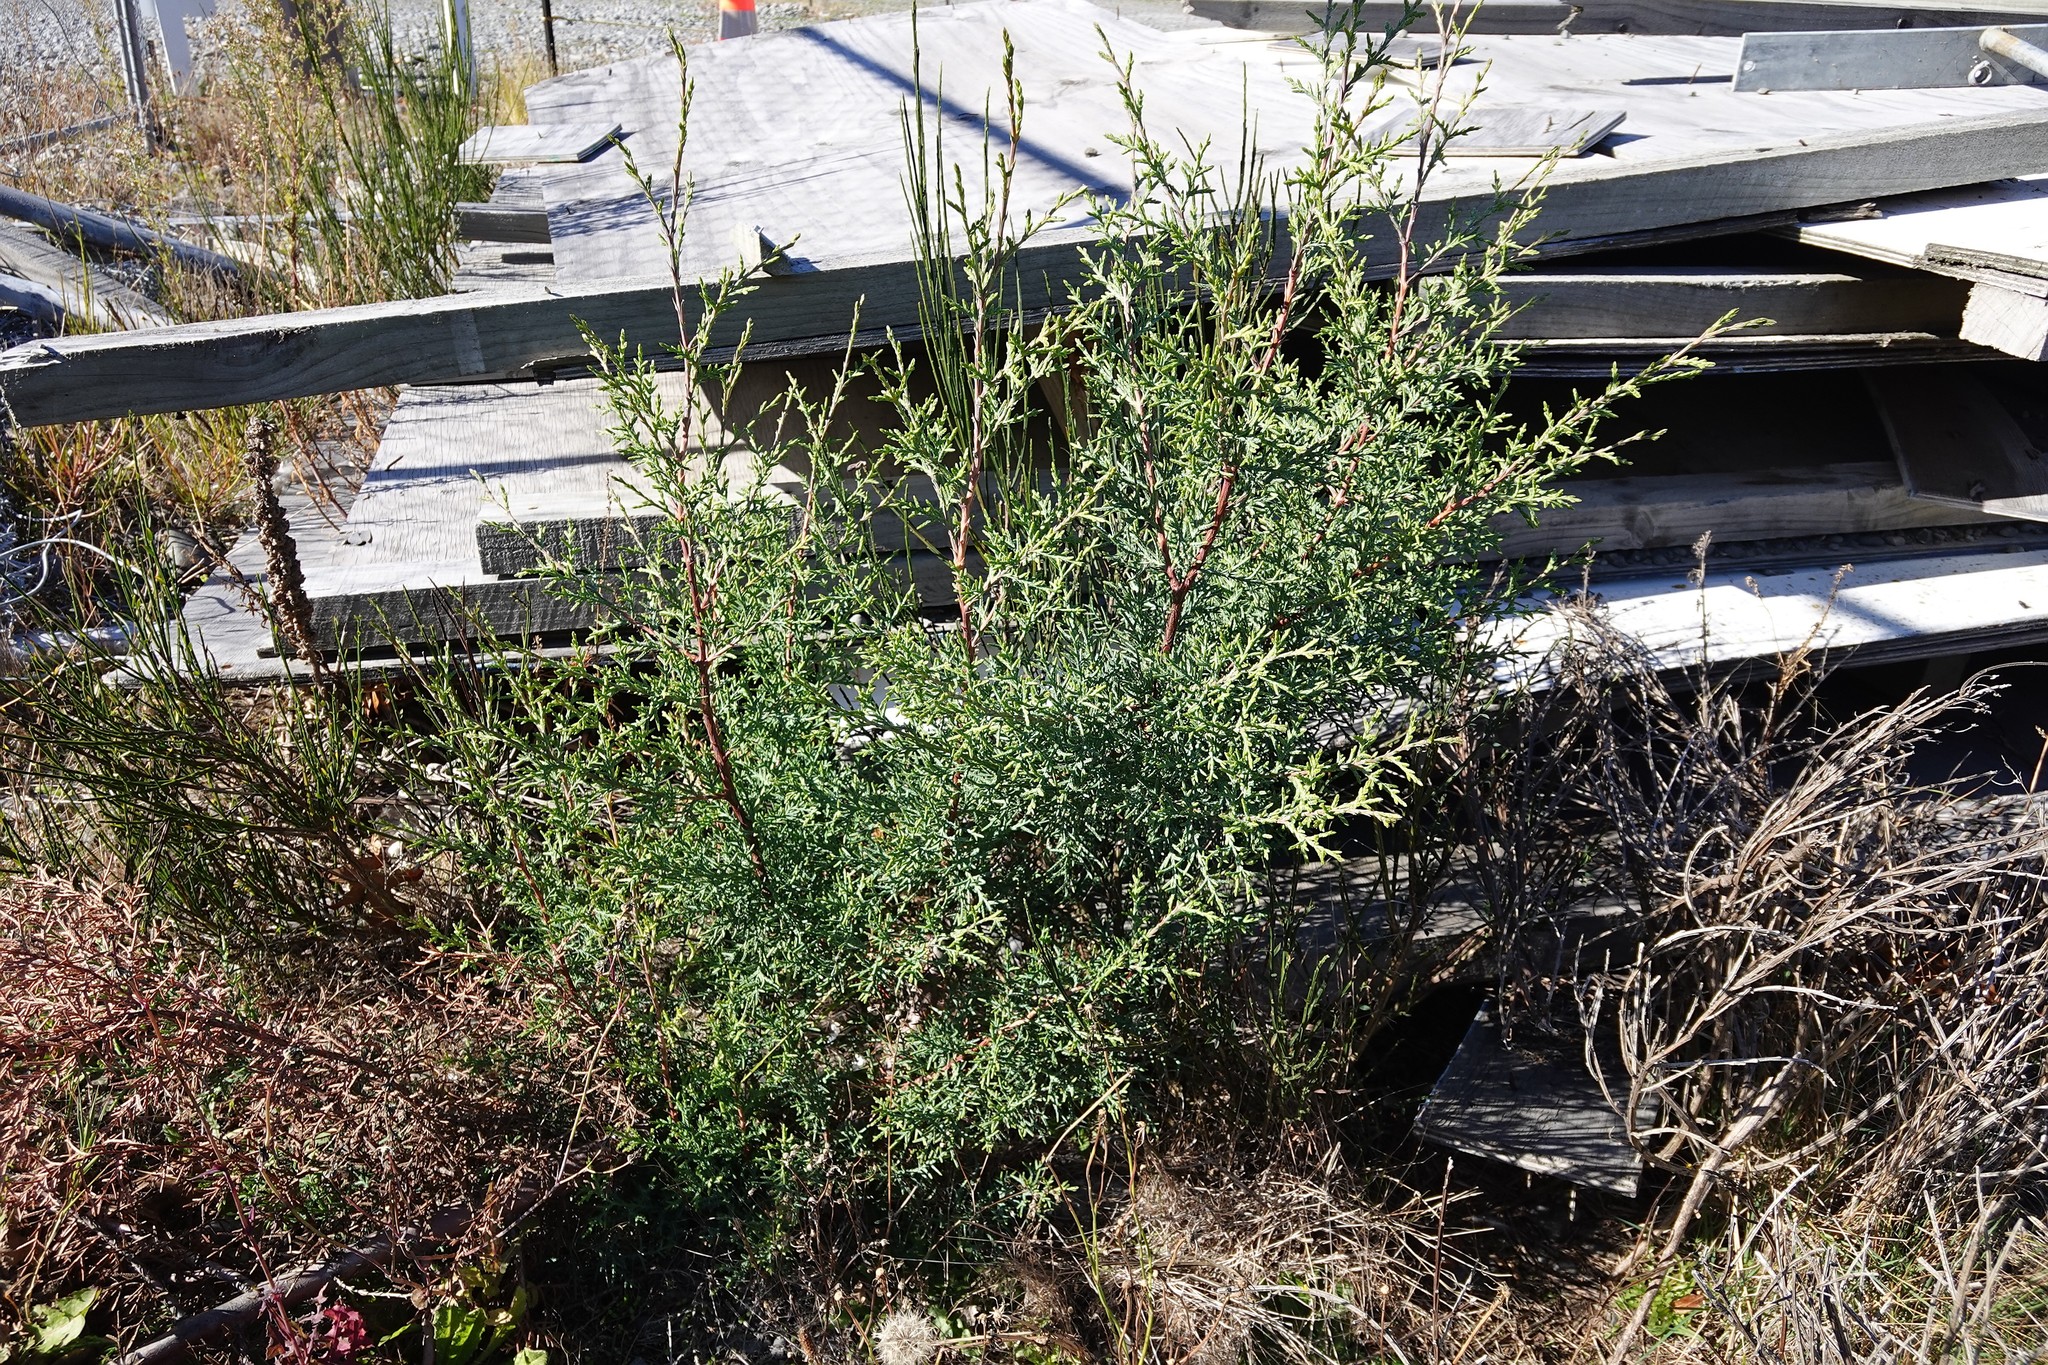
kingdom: Plantae
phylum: Tracheophyta
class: Pinopsida
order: Pinales
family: Cupressaceae
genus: Cupressus
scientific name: Cupressus macrocarpa
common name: Monterey cypress
